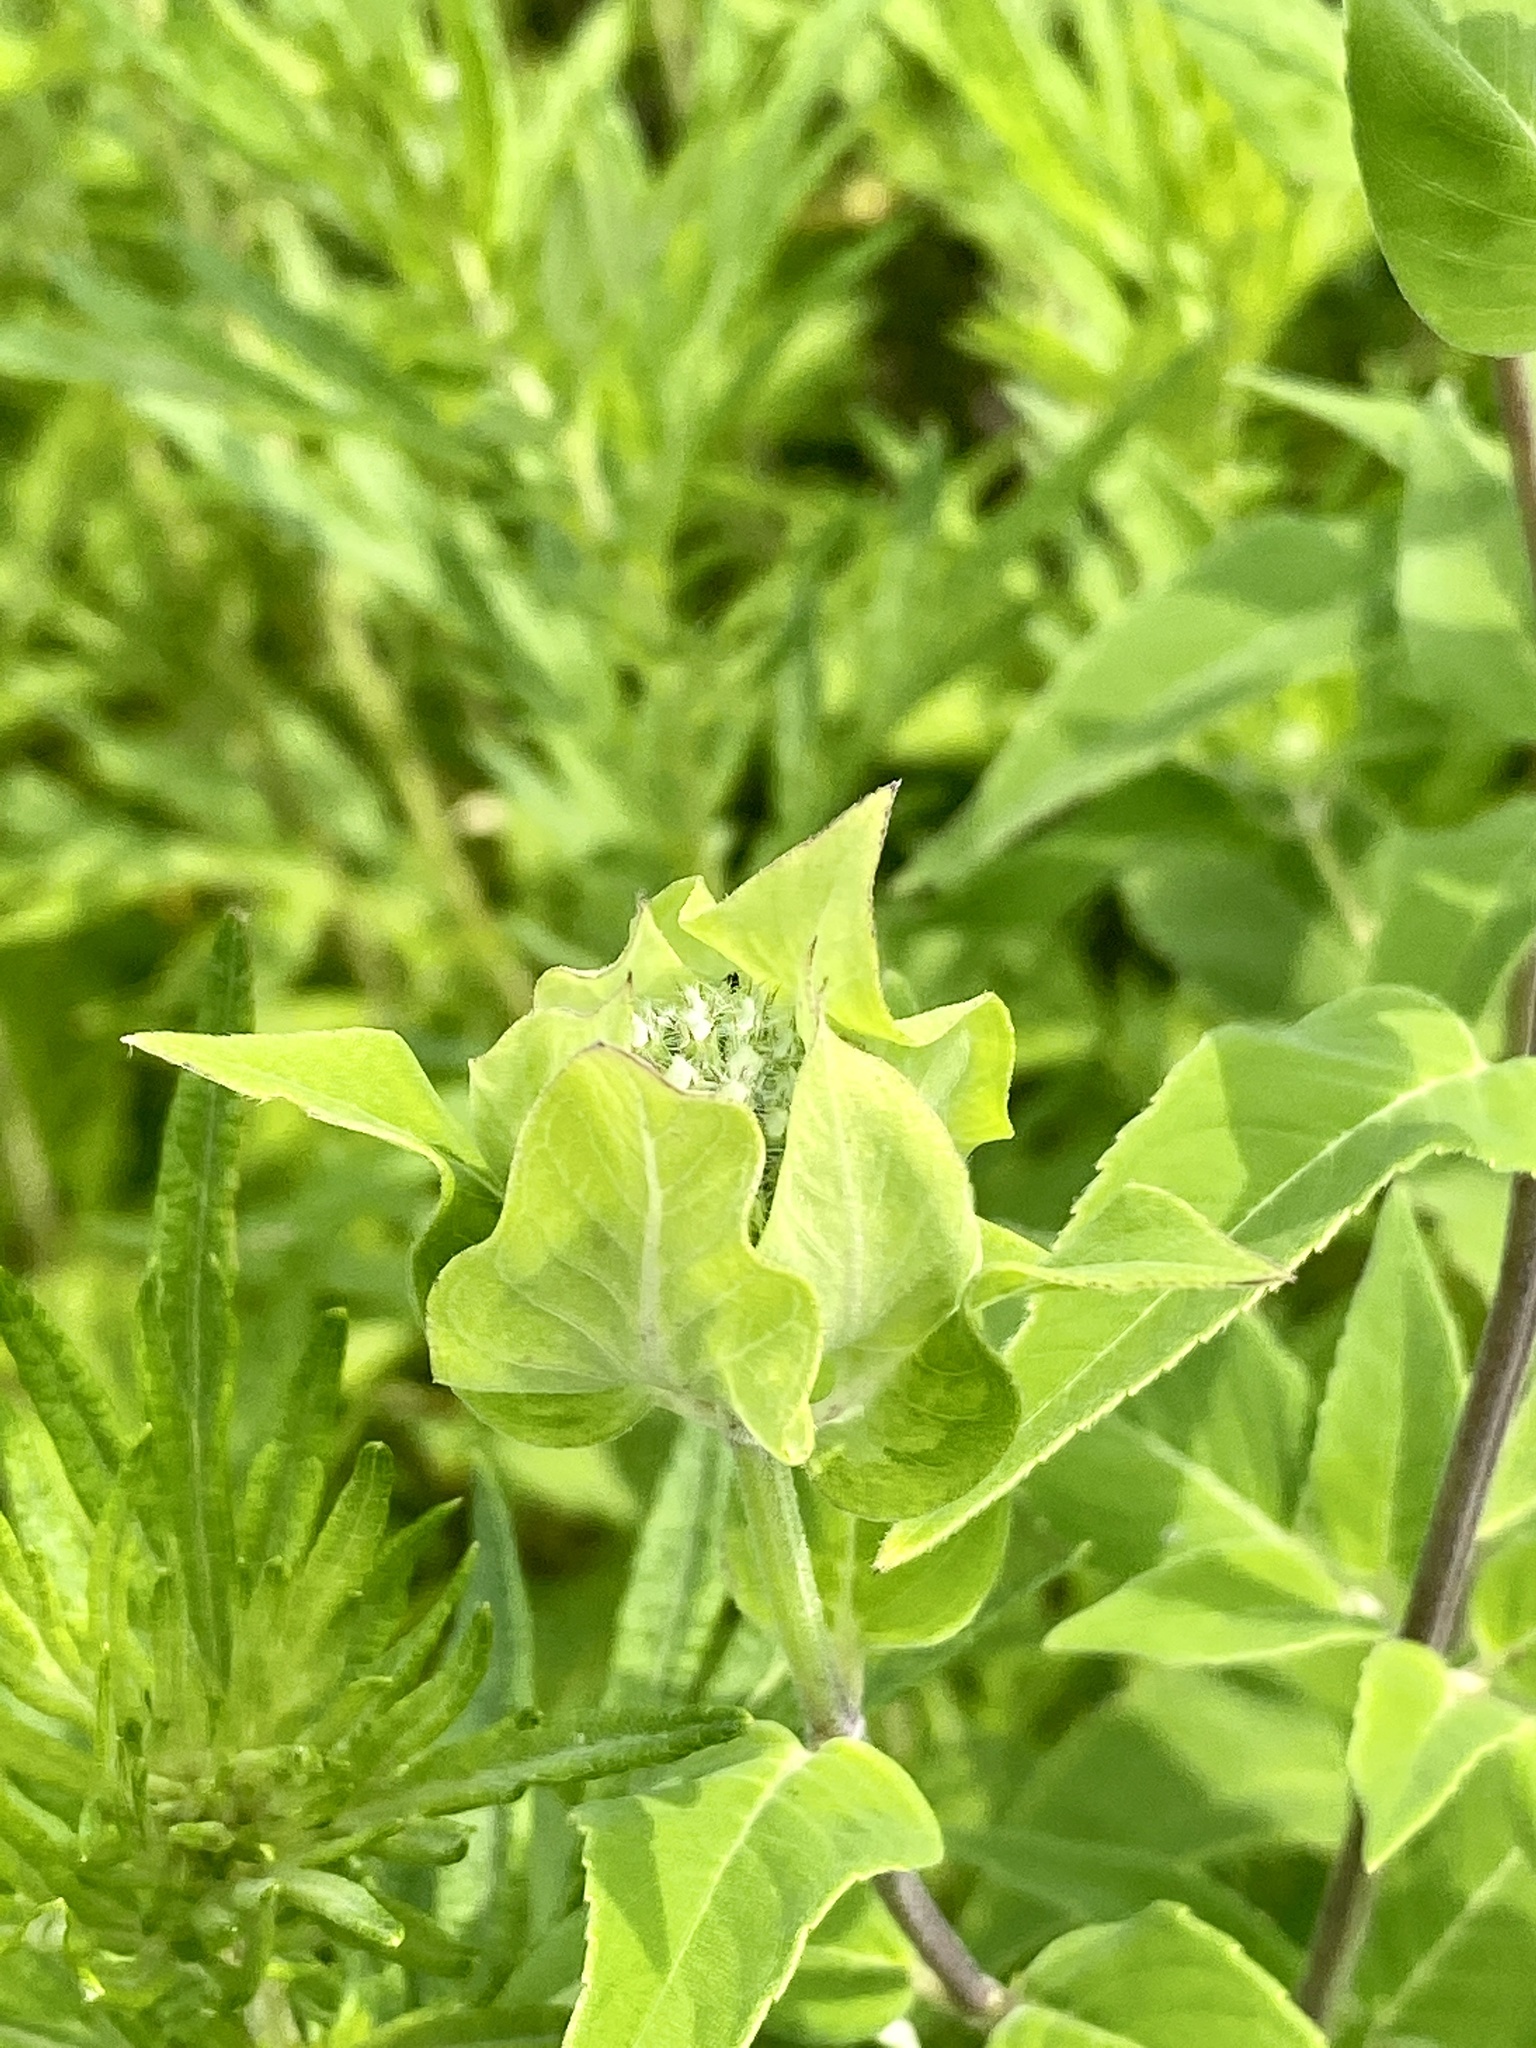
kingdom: Plantae
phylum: Tracheophyta
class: Magnoliopsida
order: Lamiales
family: Lamiaceae
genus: Monarda
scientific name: Monarda fistulosa
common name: Purple beebalm
